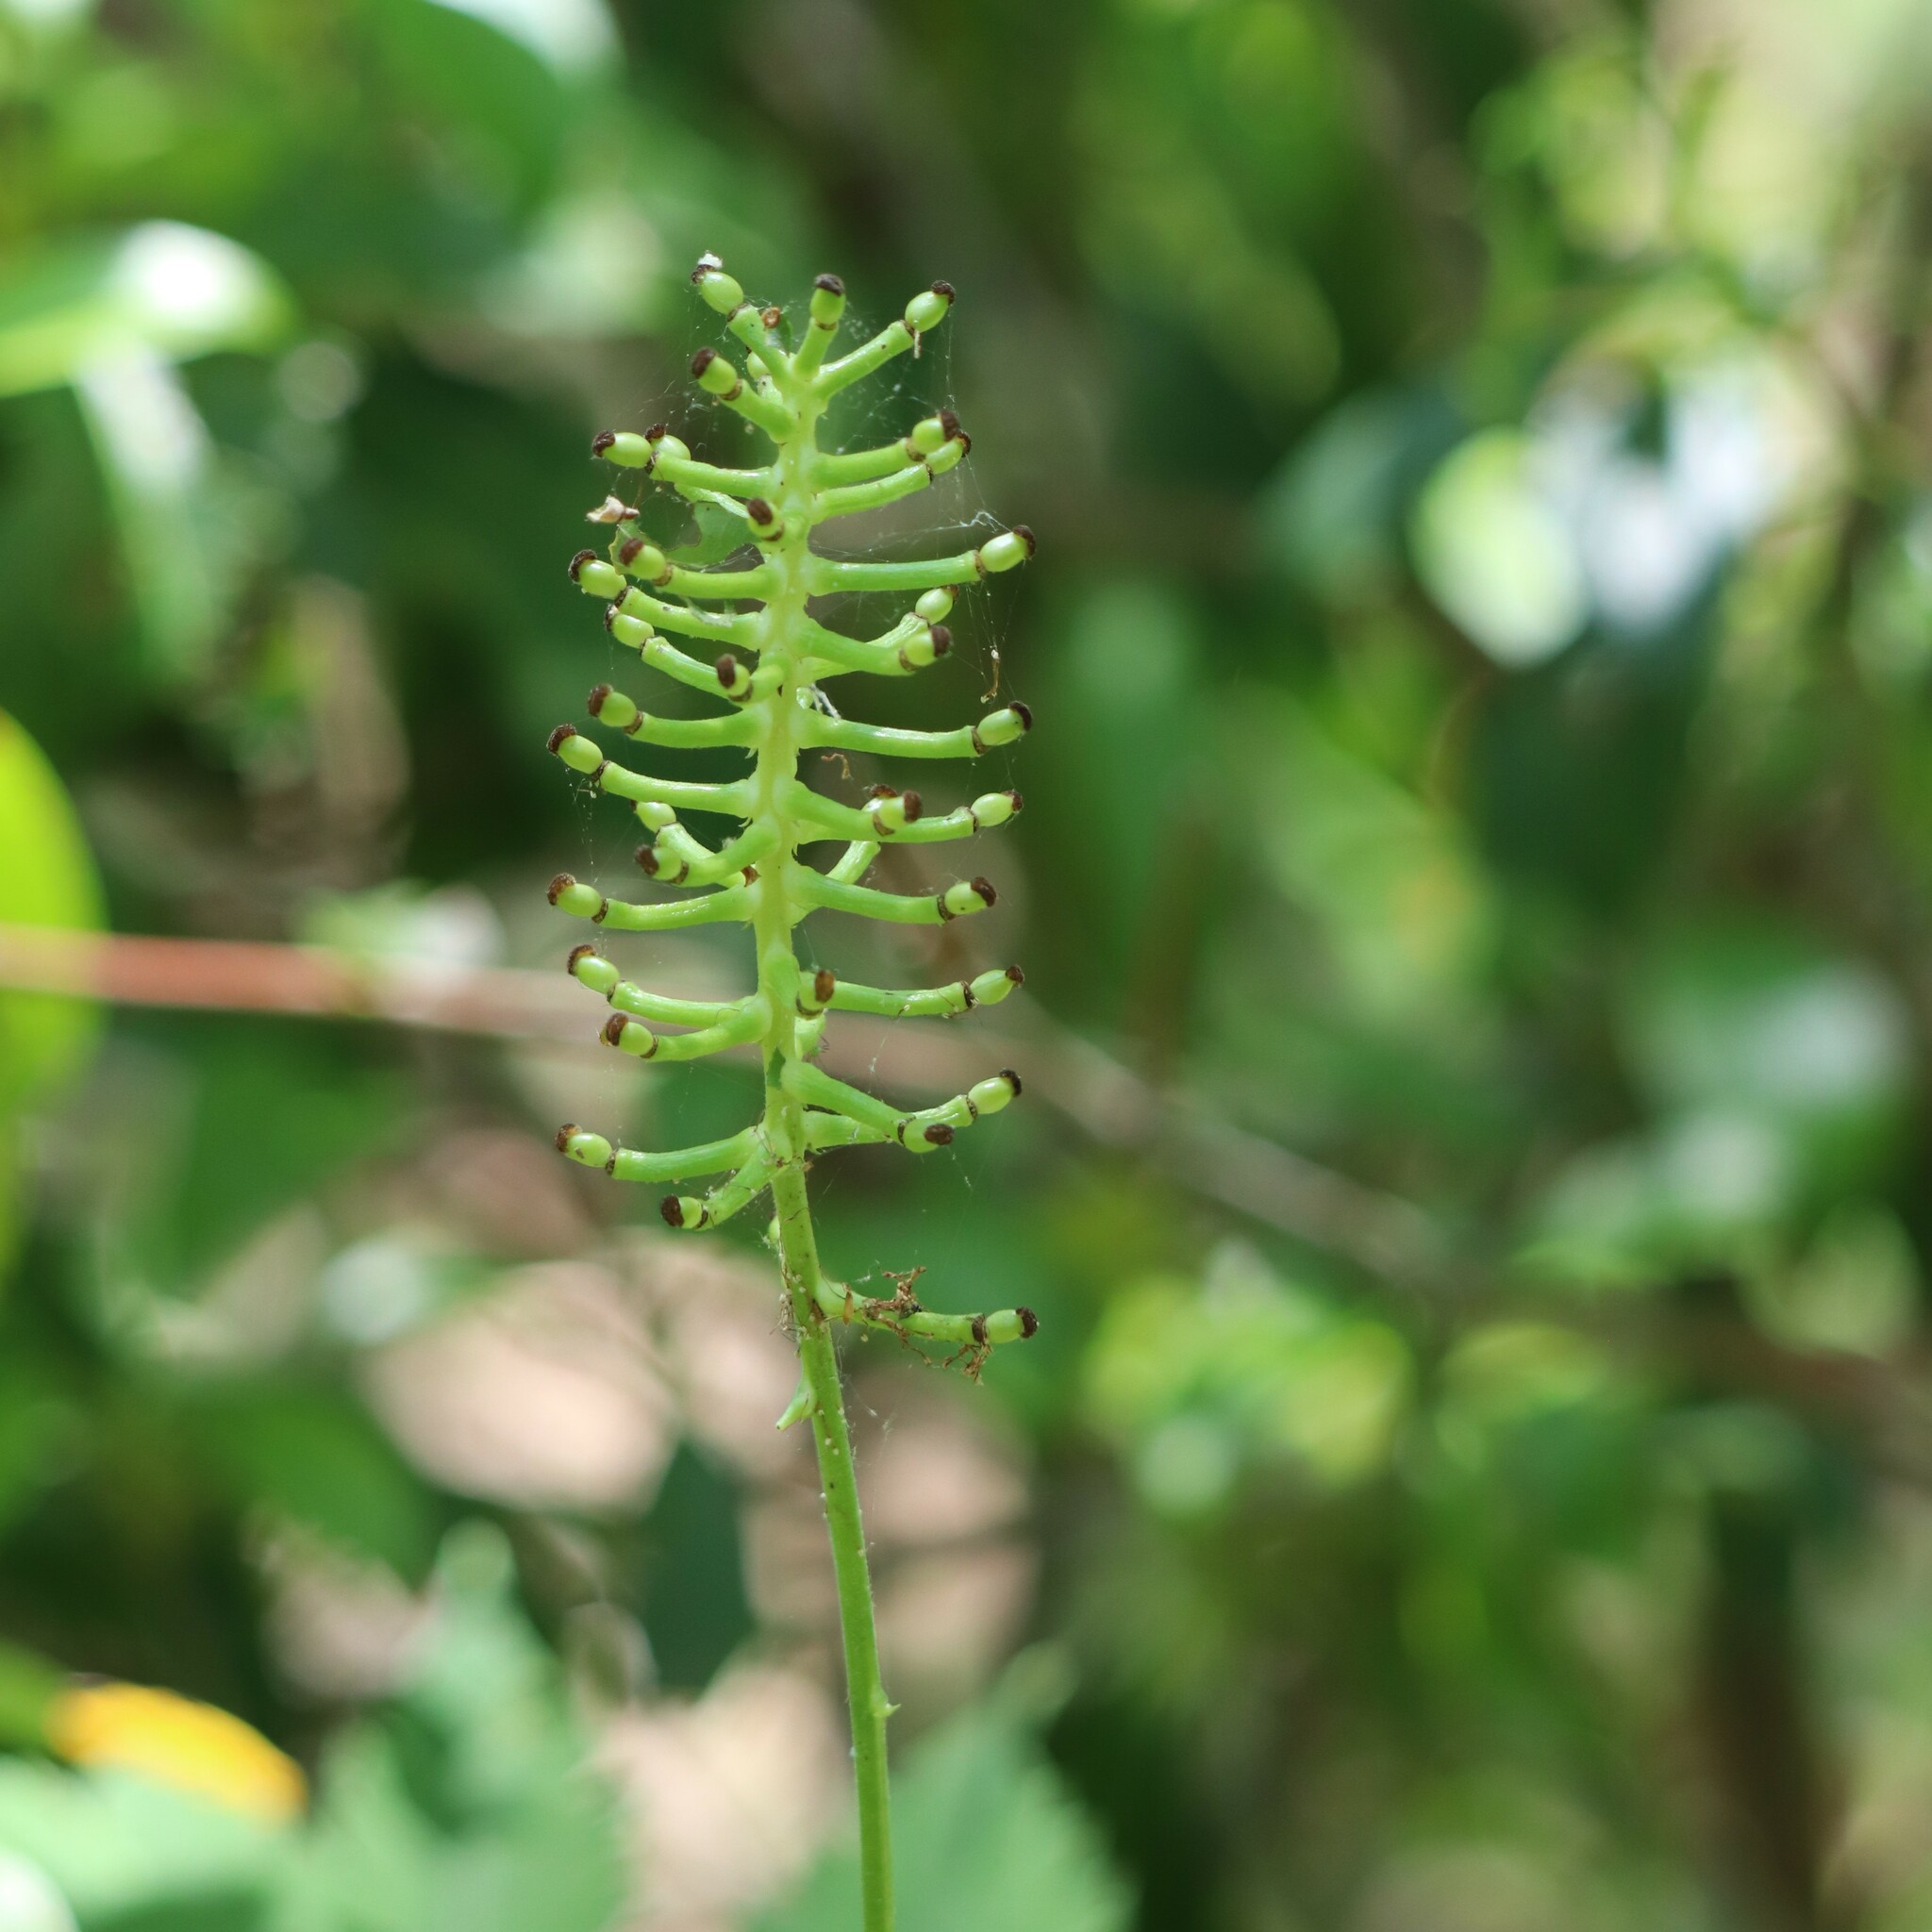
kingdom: Plantae
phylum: Tracheophyta
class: Magnoliopsida
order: Ranunculales
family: Ranunculaceae
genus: Actaea
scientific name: Actaea pachypoda
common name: Doll's-eyes
